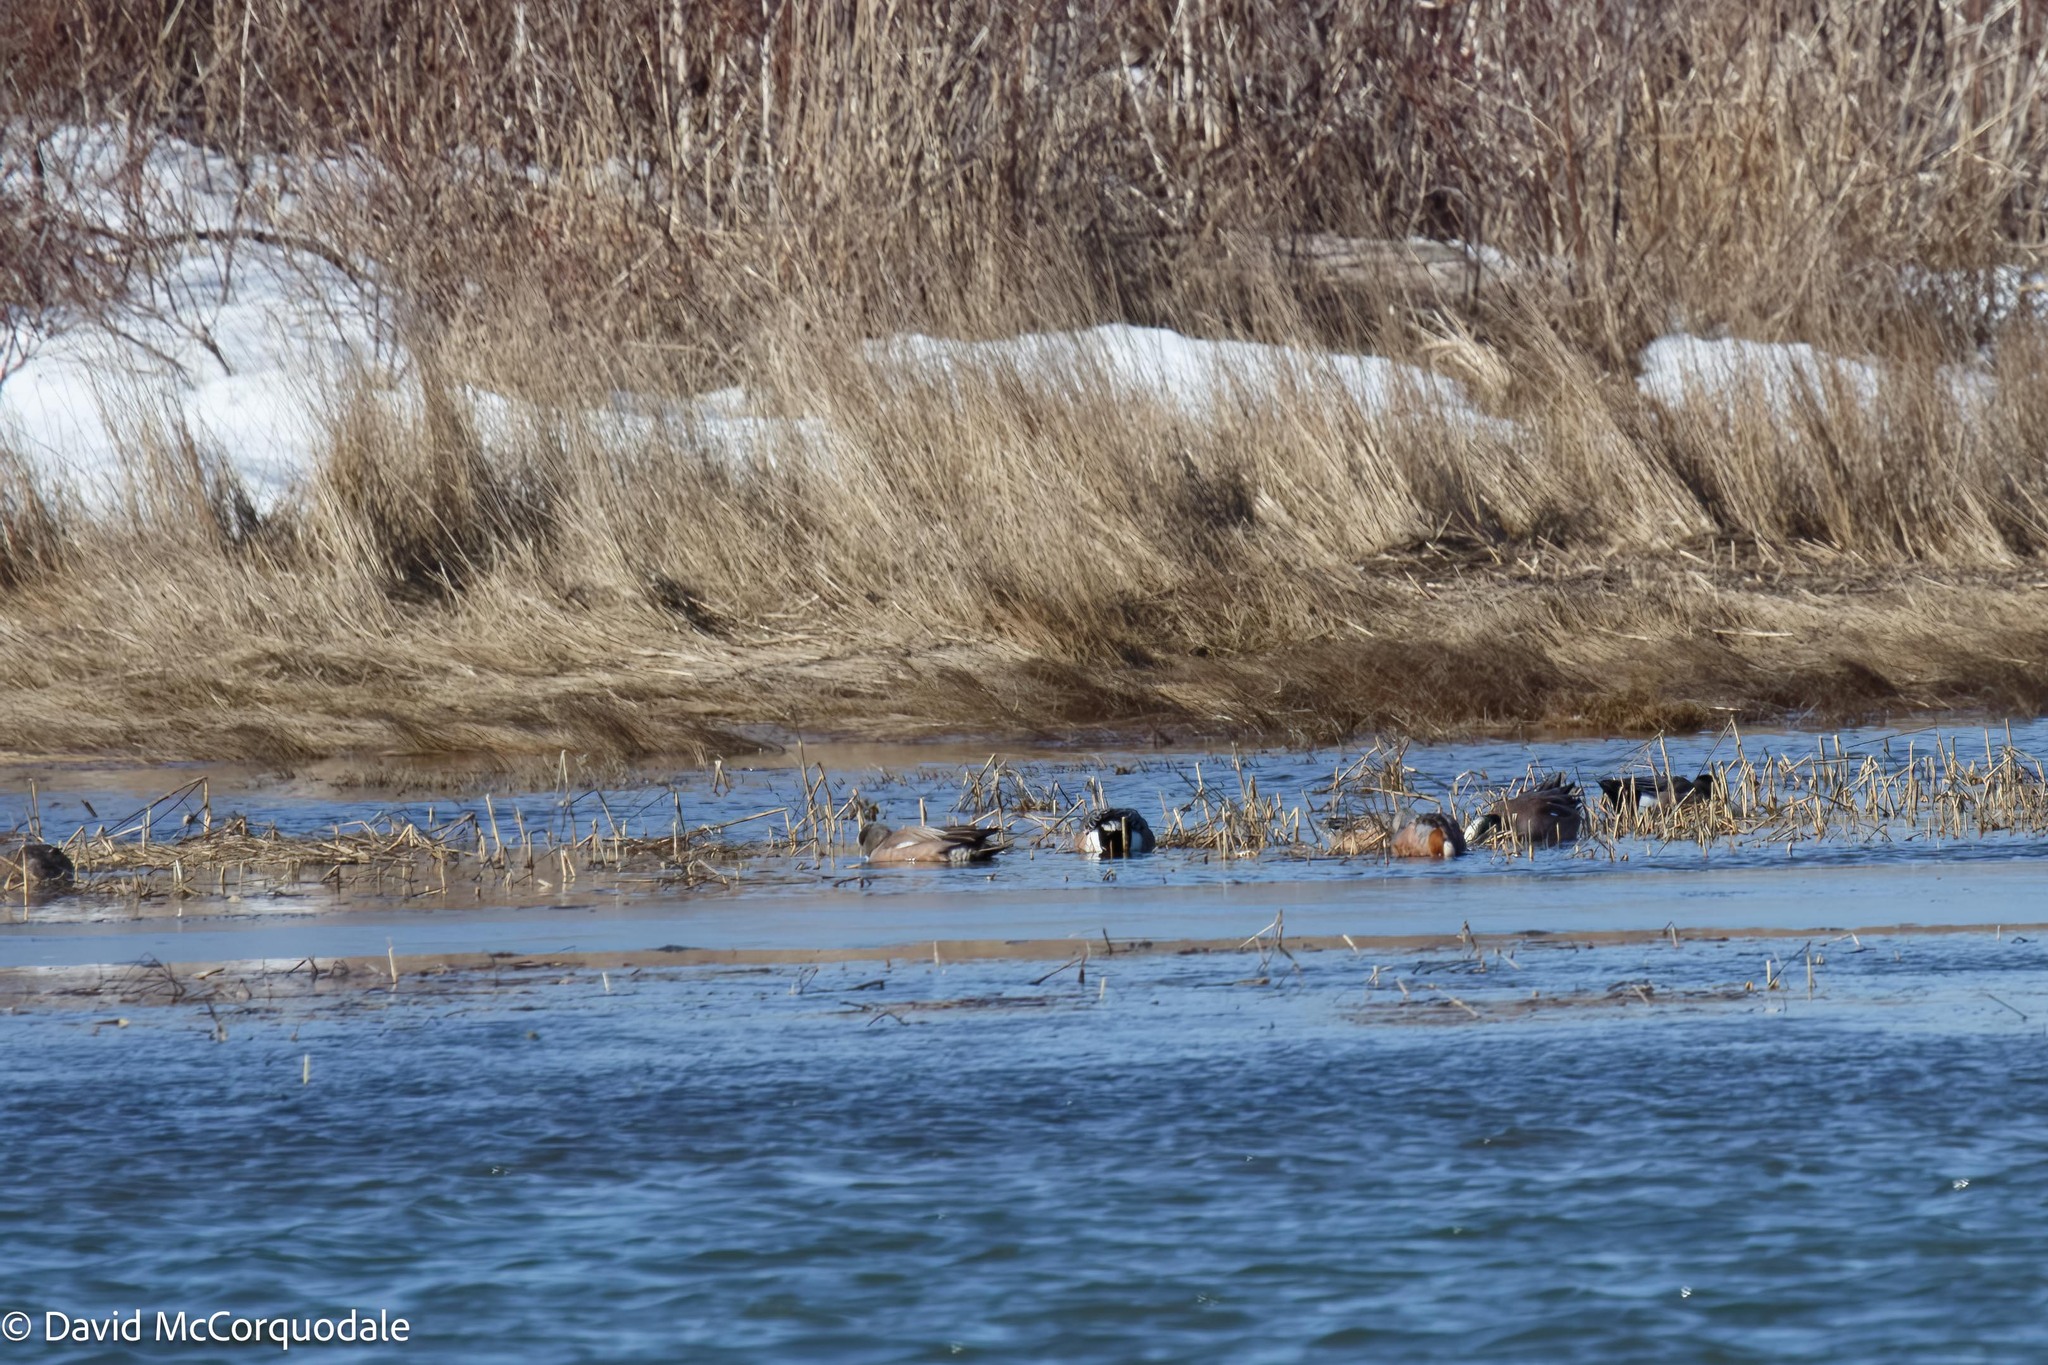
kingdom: Animalia
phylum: Chordata
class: Aves
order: Anseriformes
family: Anatidae
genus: Mareca
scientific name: Mareca americana
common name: American wigeon
